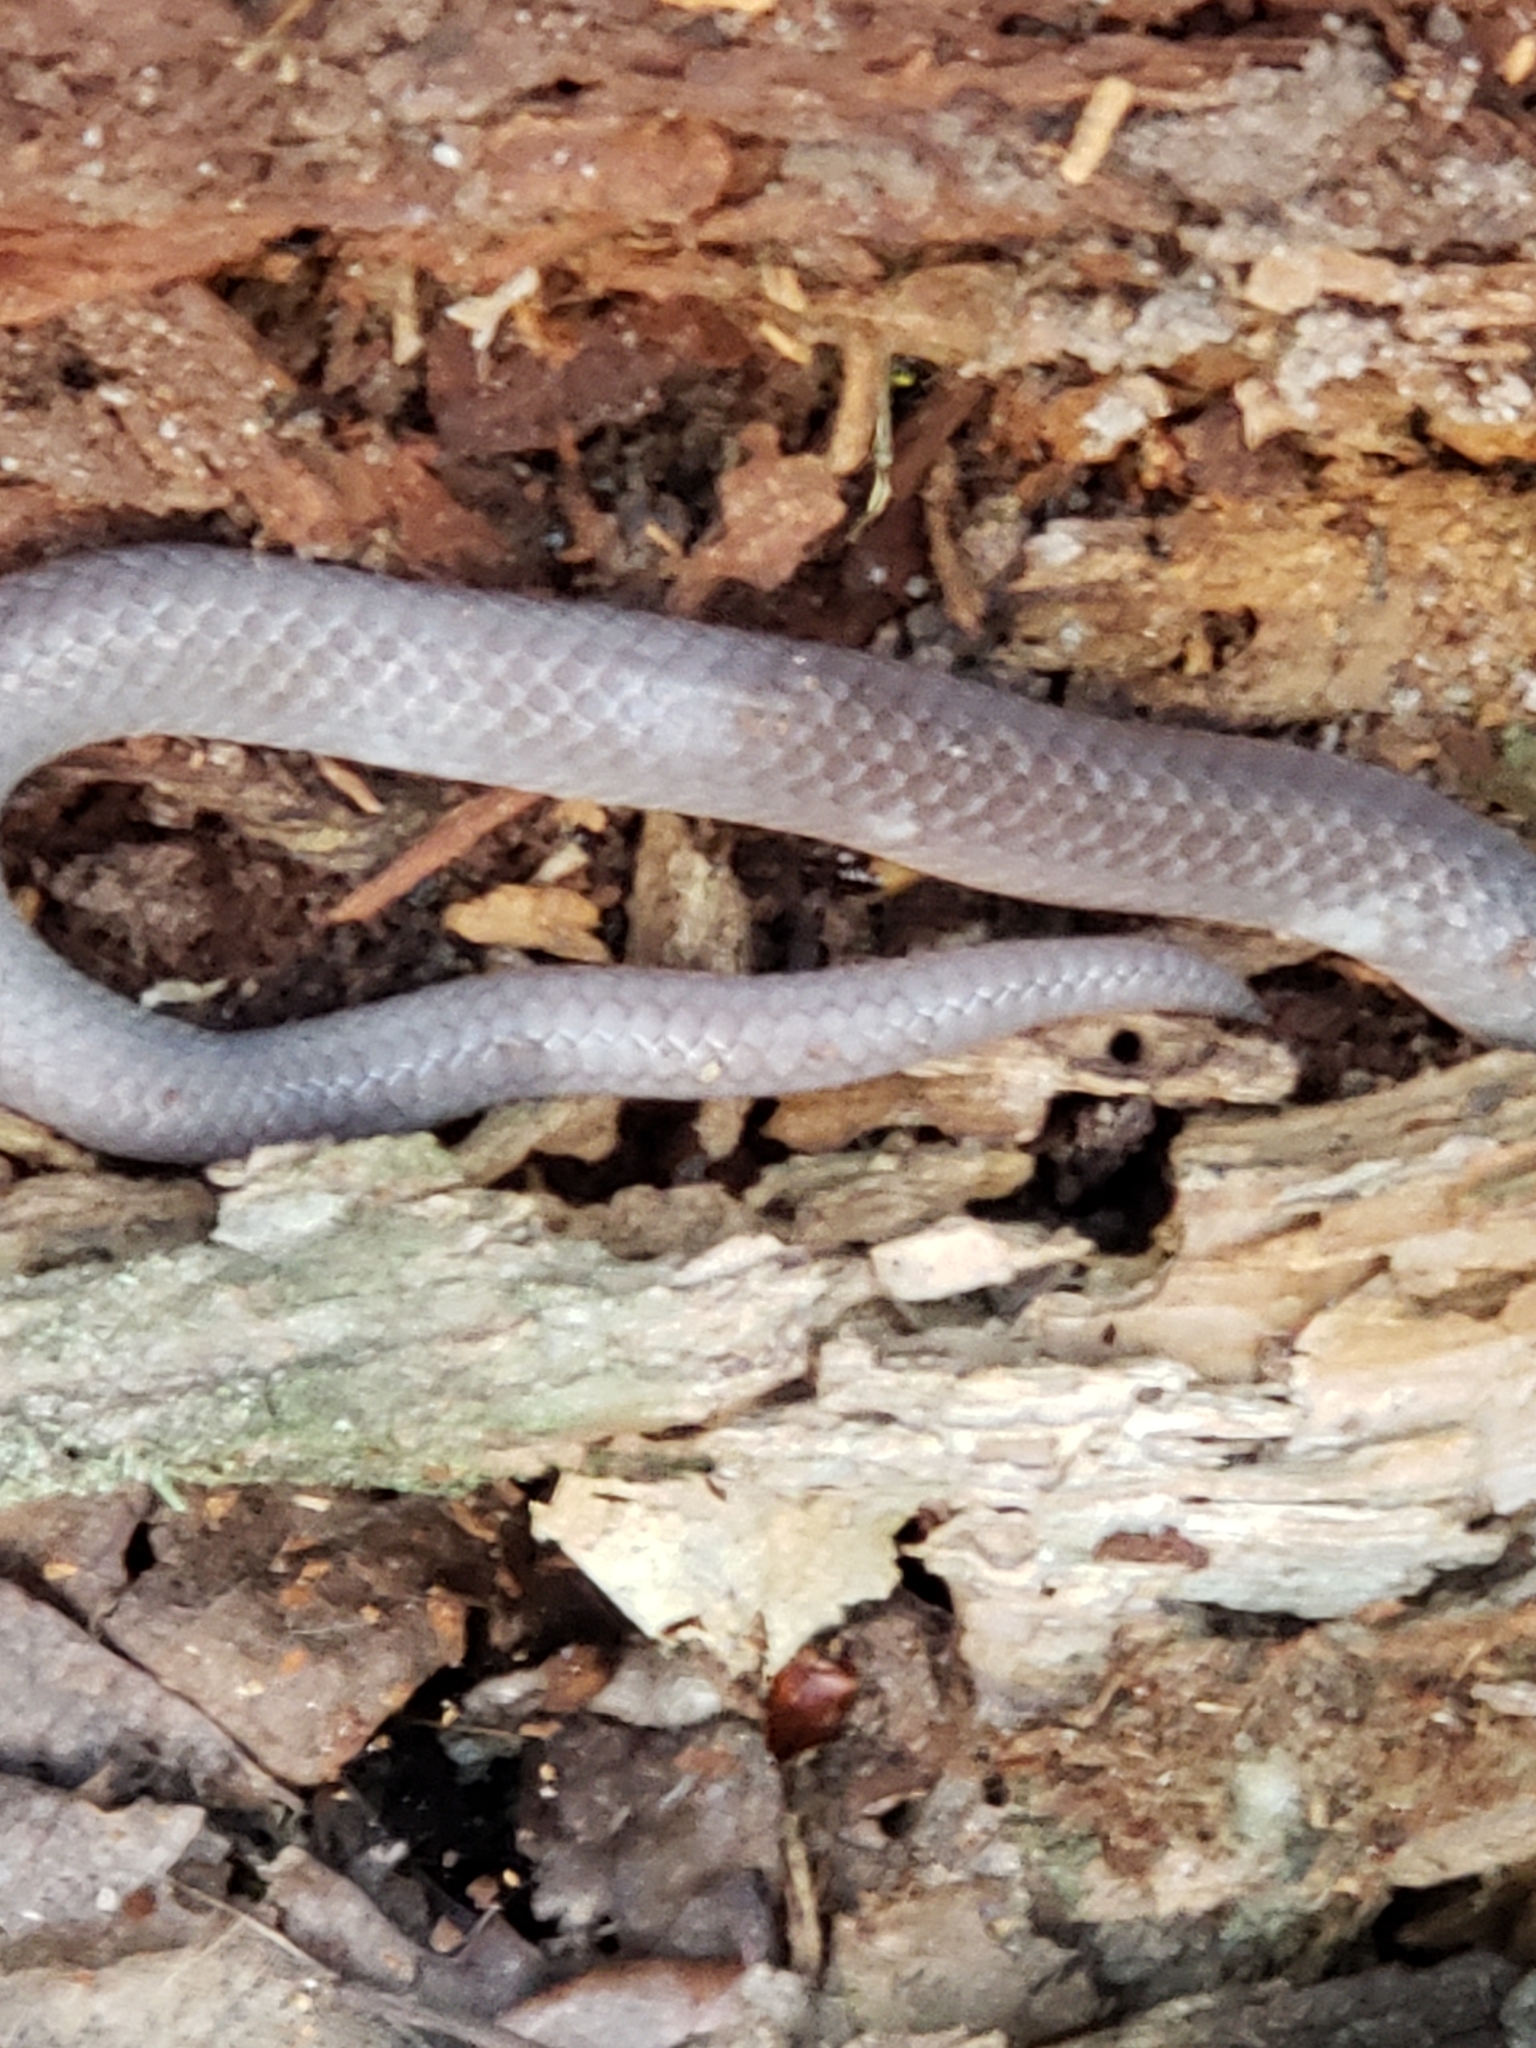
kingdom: Animalia
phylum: Chordata
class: Squamata
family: Colubridae
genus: Carphophis
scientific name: Carphophis amoenus
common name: Eastern worm snake
